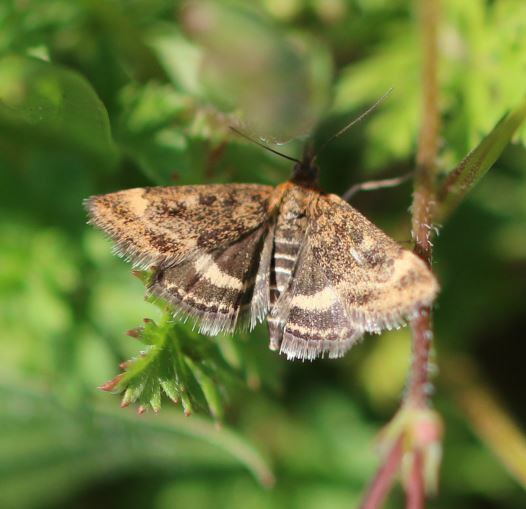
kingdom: Animalia
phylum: Arthropoda
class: Insecta
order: Lepidoptera
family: Crambidae
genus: Pyrausta
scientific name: Pyrausta despicata
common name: Straw-barred pearl
